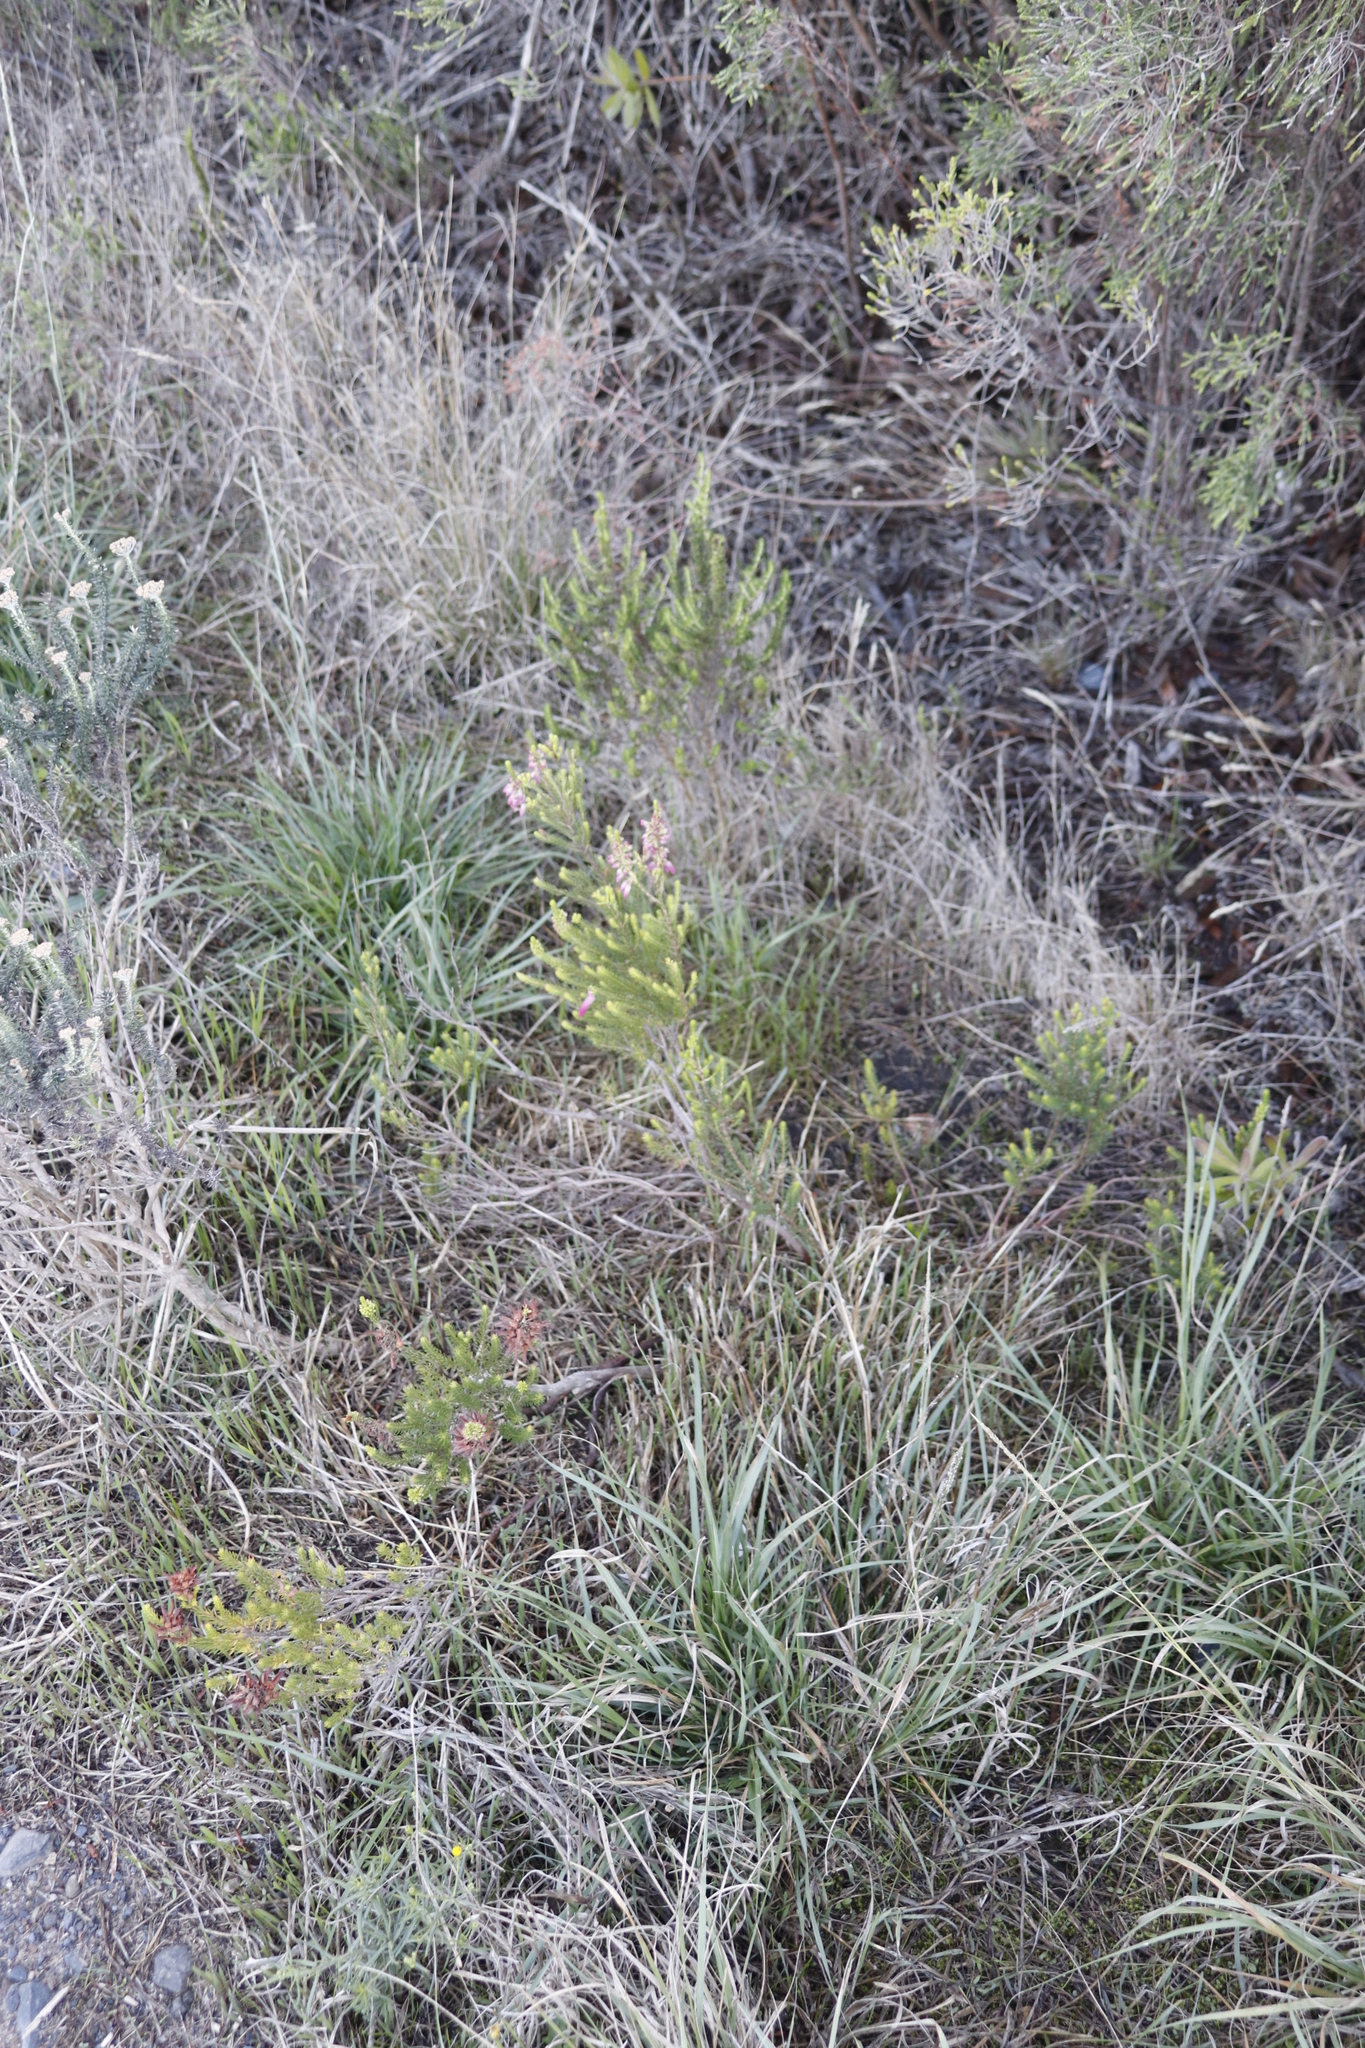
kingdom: Plantae
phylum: Tracheophyta
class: Magnoliopsida
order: Ericales
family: Ericaceae
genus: Erica
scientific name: Erica mammosa
